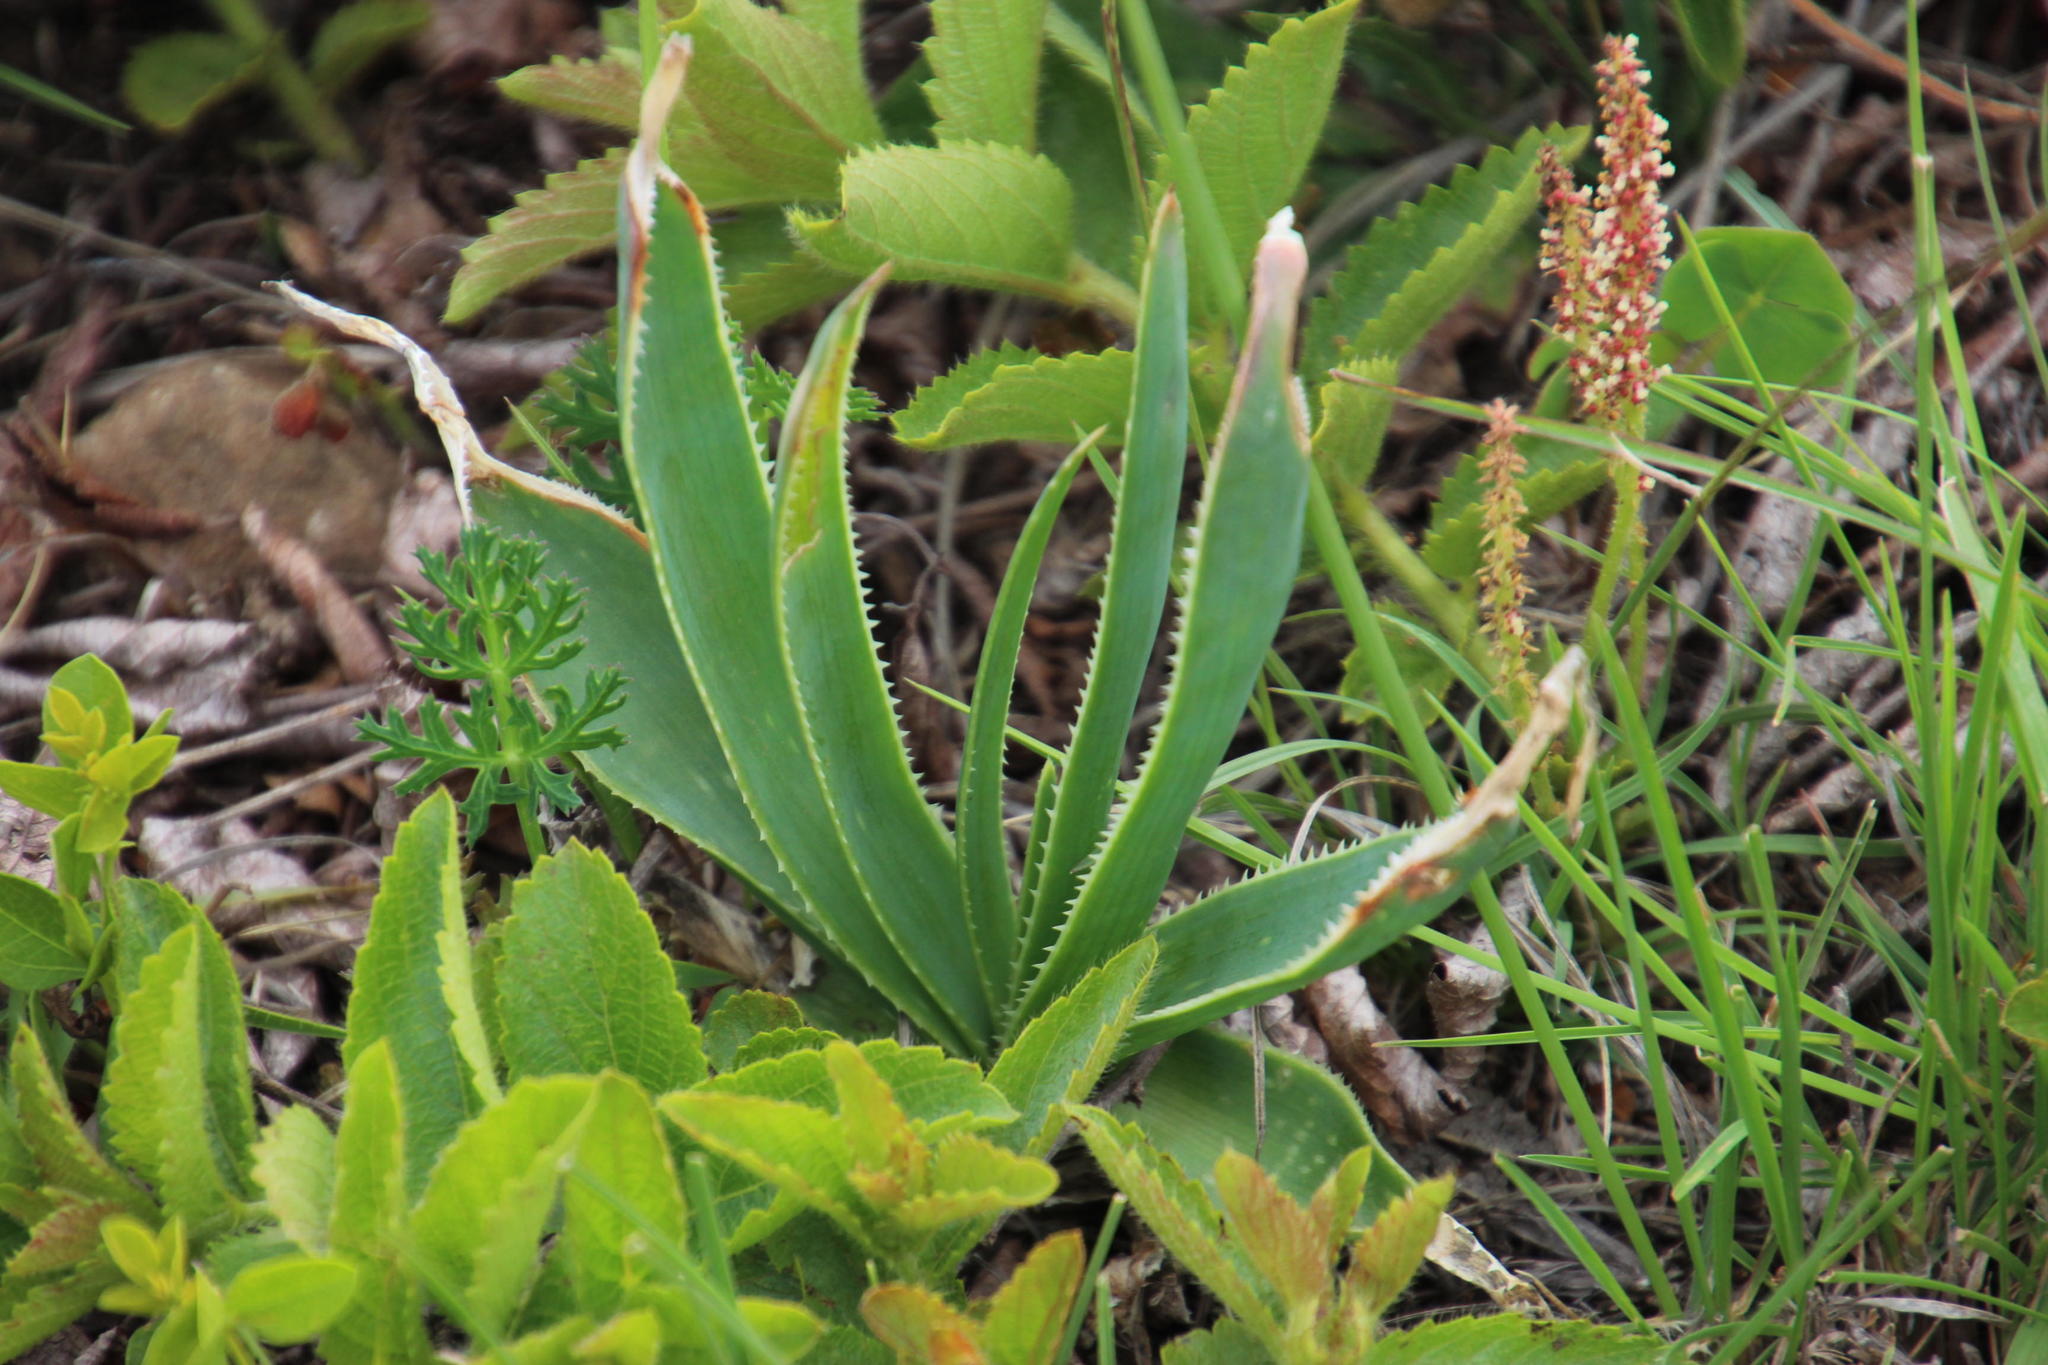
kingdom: Plantae
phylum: Tracheophyta
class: Liliopsida
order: Asparagales
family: Asphodelaceae
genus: Aloe
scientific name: Aloe hlangapies
